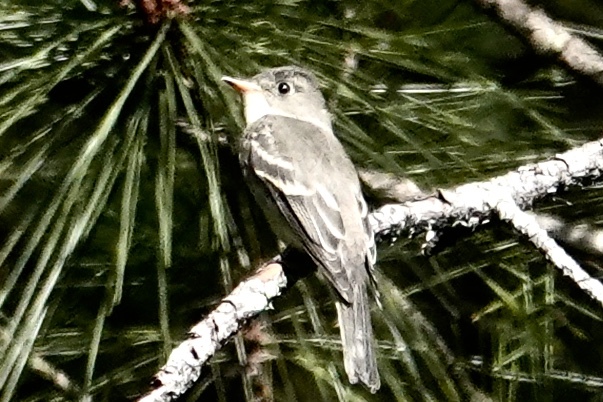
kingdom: Animalia
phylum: Chordata
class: Aves
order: Passeriformes
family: Tyrannidae
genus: Contopus
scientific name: Contopus virens
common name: Eastern wood-pewee
